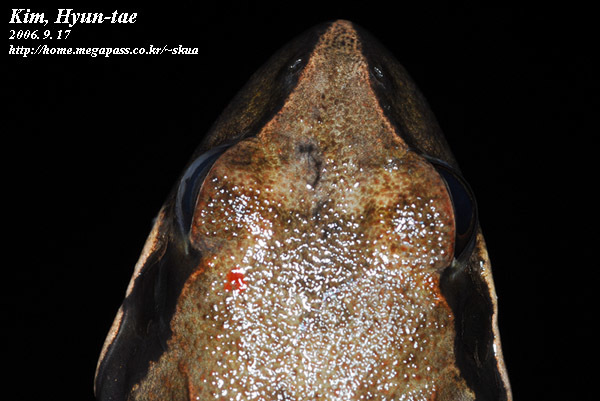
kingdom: Animalia
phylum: Chordata
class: Amphibia
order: Anura
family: Ranidae
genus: Rana
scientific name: Rana uenoi
